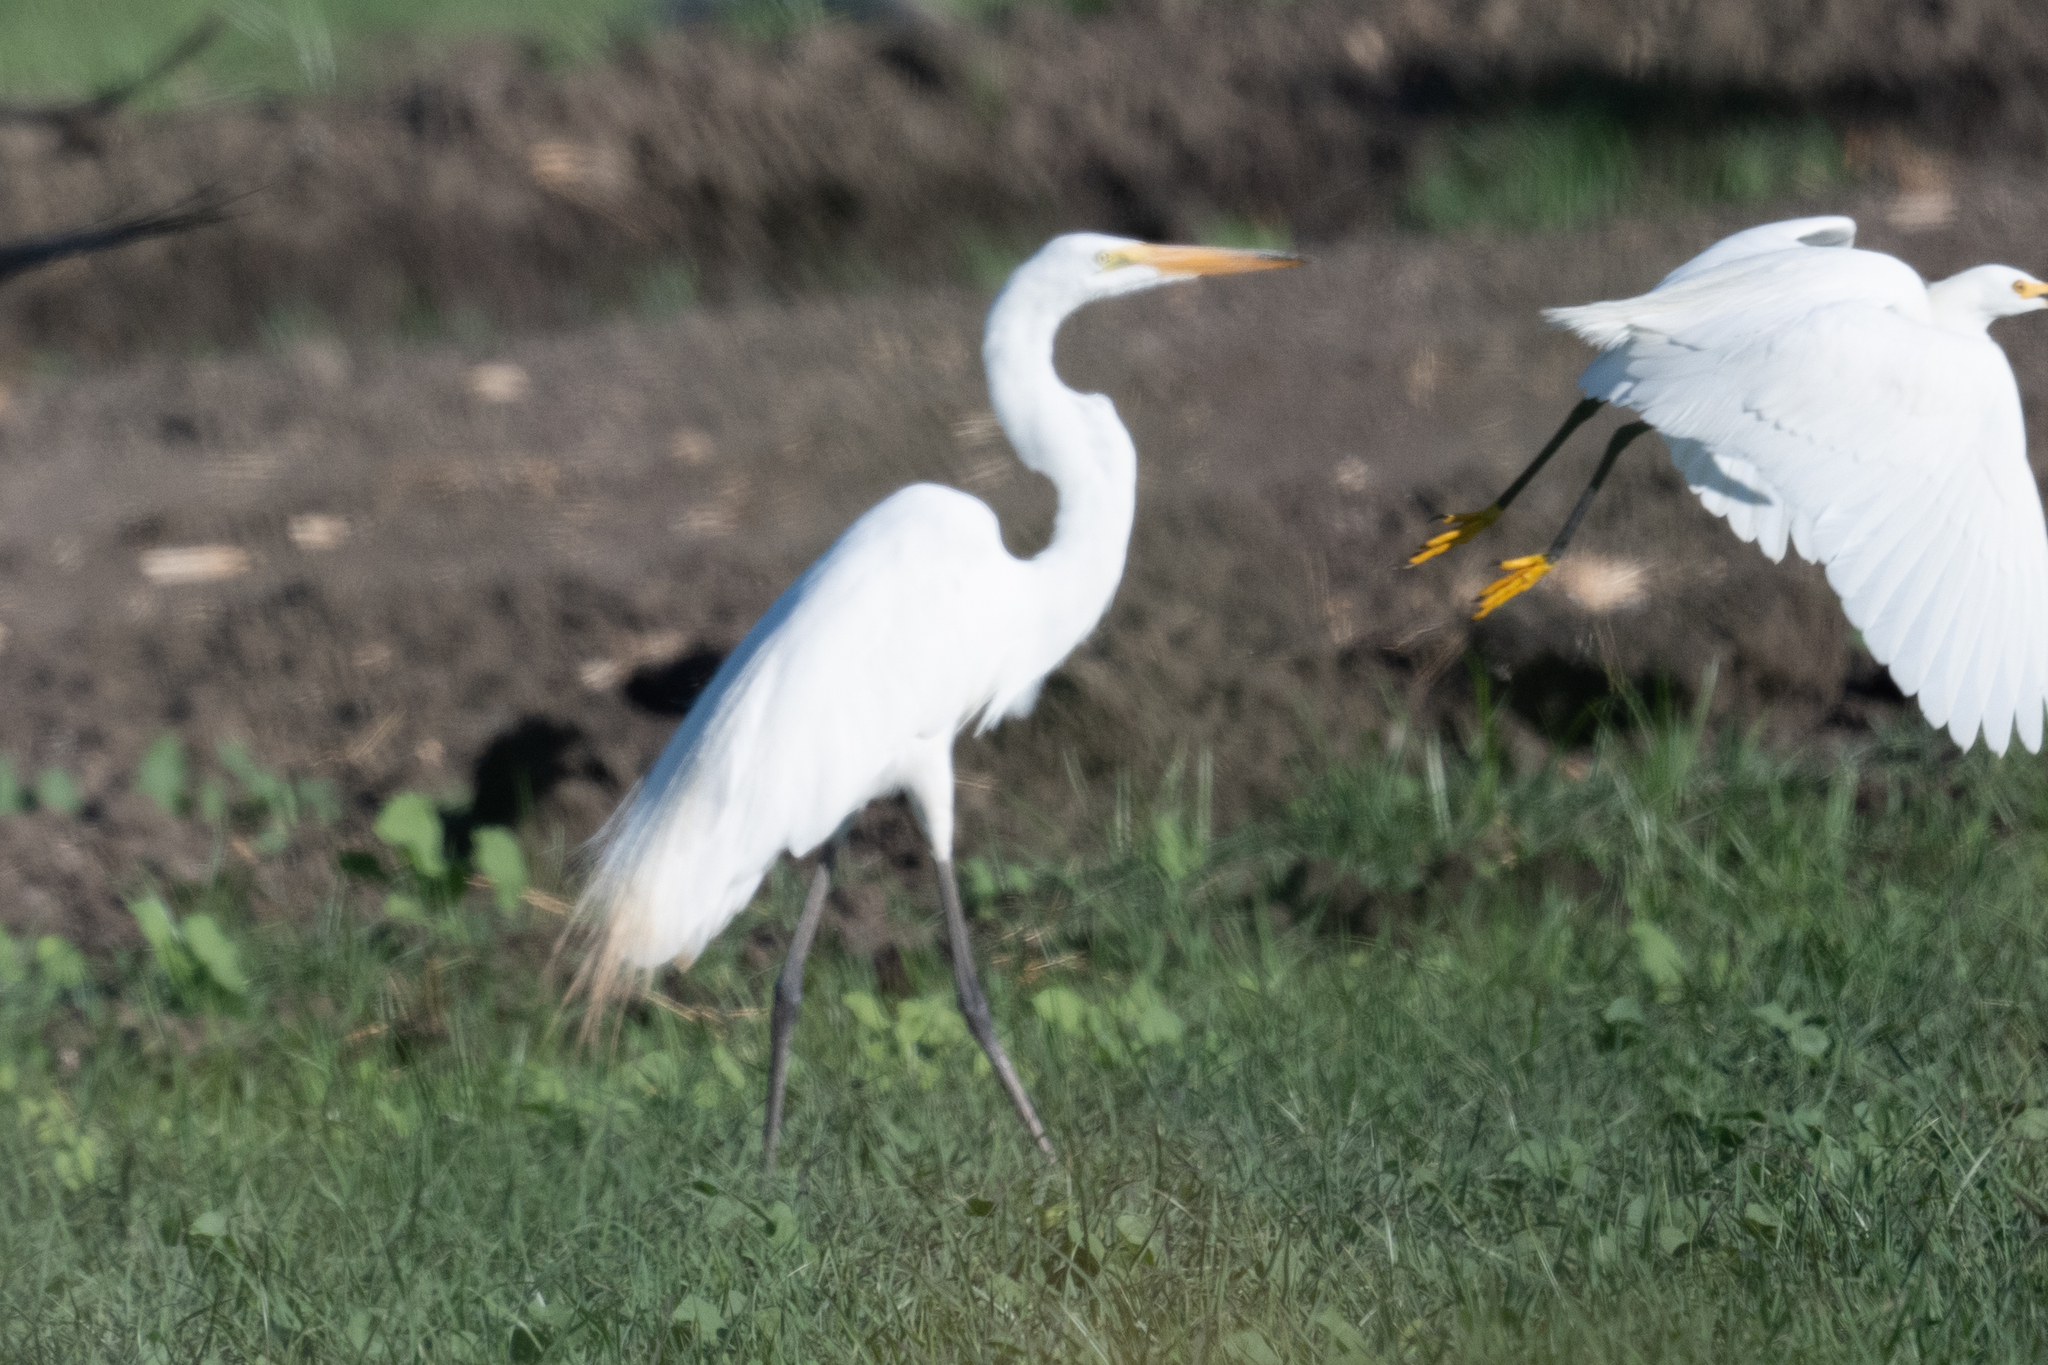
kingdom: Animalia
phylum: Chordata
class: Aves
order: Pelecaniformes
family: Ardeidae
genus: Ardea
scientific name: Ardea alba
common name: Great egret
